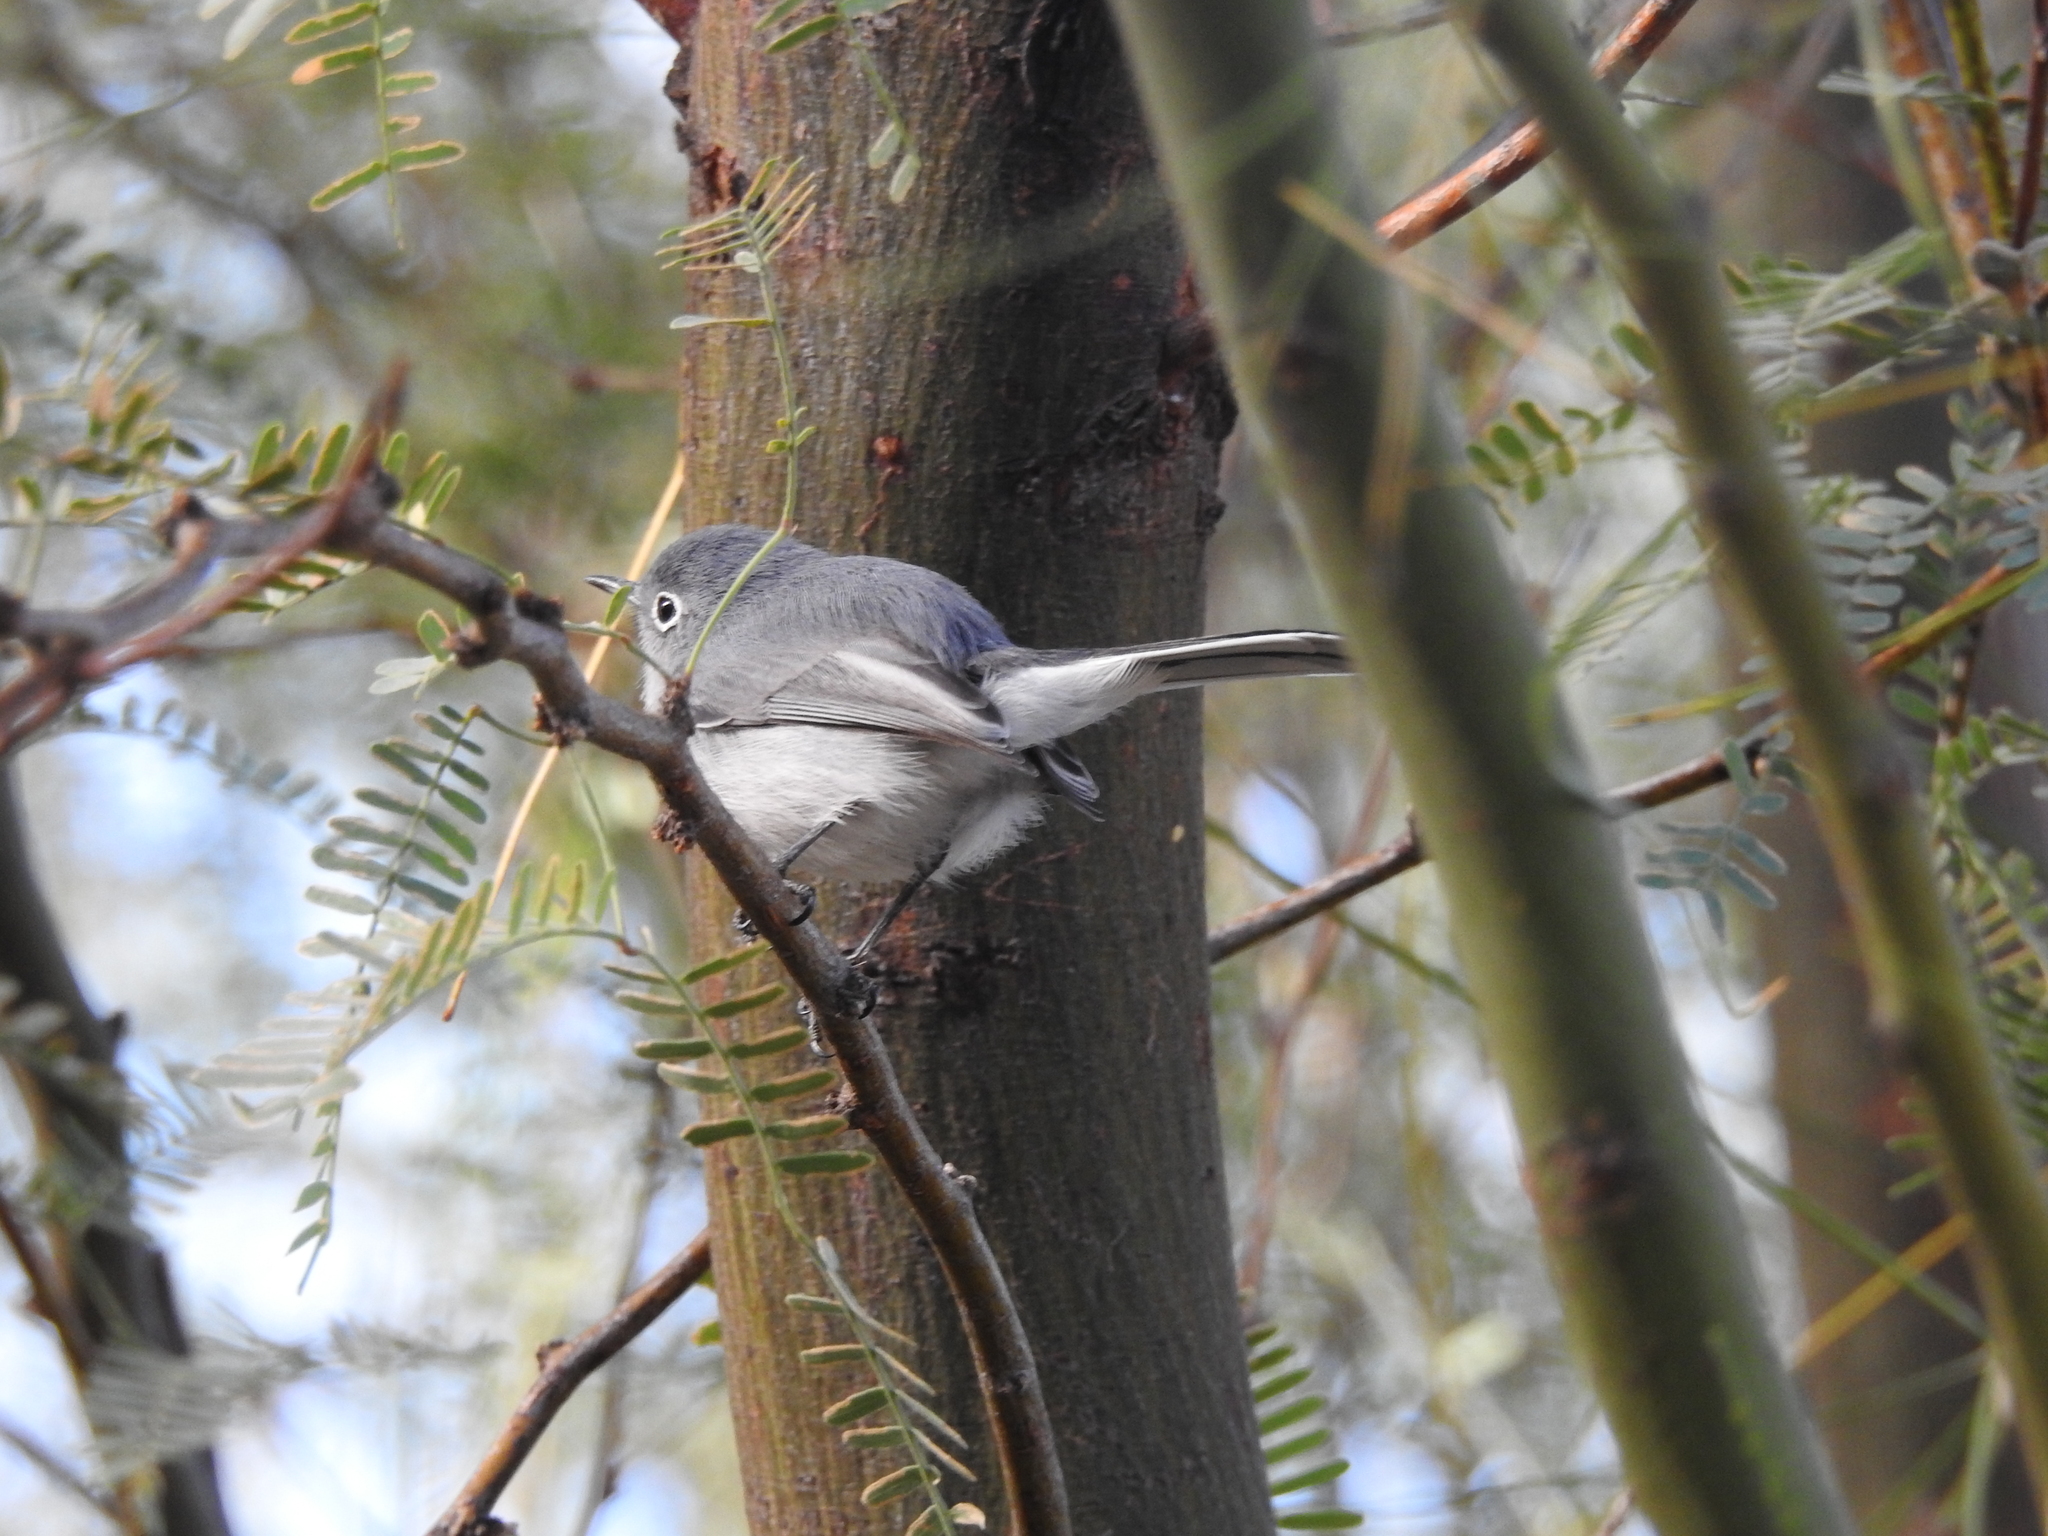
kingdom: Animalia
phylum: Chordata
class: Aves
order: Passeriformes
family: Polioptilidae
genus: Polioptila
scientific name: Polioptila caerulea
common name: Blue-gray gnatcatcher
